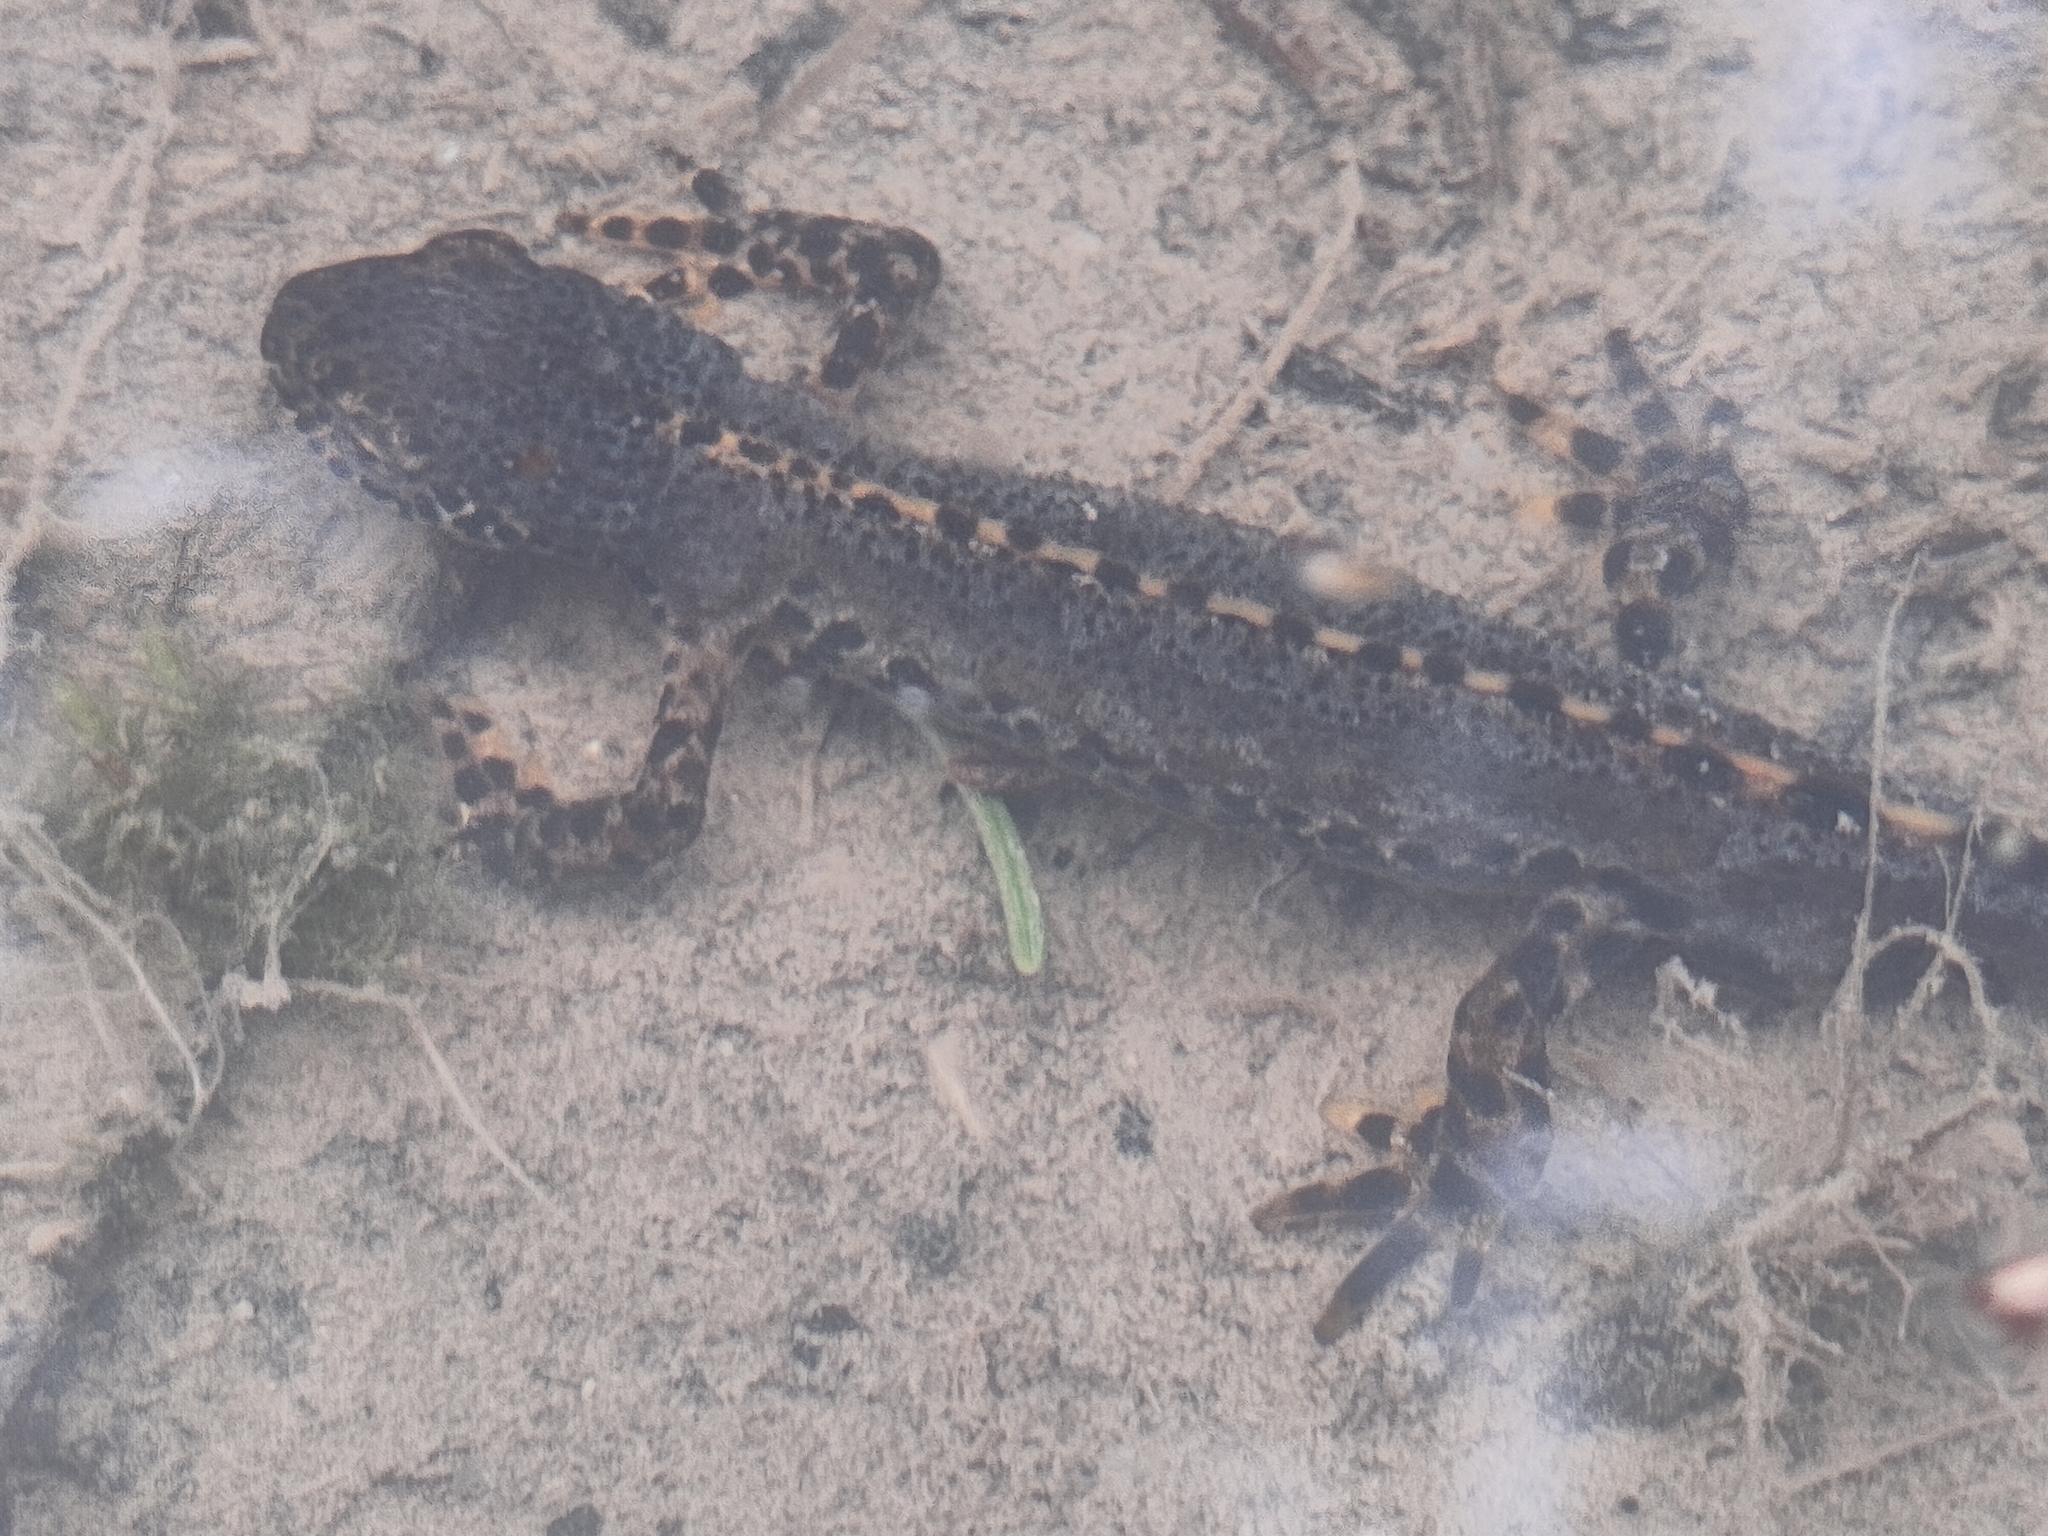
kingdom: Animalia
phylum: Chordata
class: Amphibia
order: Caudata
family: Salamandridae
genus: Ichthyosaura
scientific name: Ichthyosaura alpestris
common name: Alpine newt
